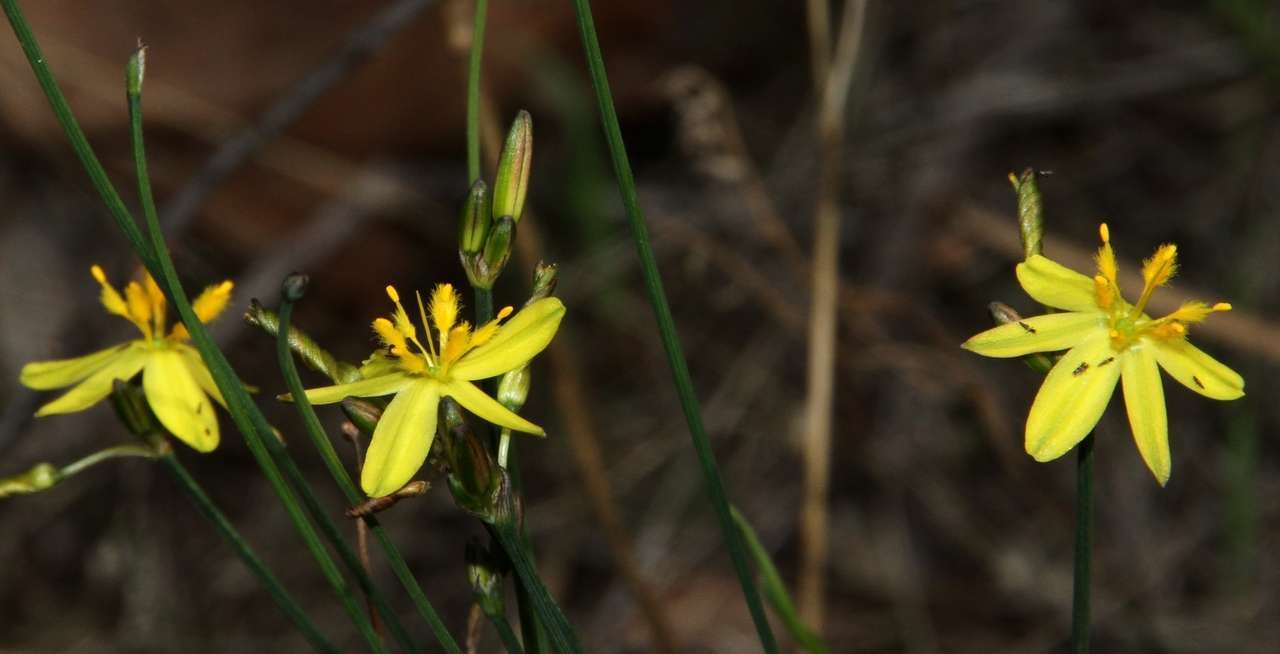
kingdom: Plantae
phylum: Tracheophyta
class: Liliopsida
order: Asparagales
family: Asphodelaceae
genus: Tricoryne
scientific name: Tricoryne elatior
